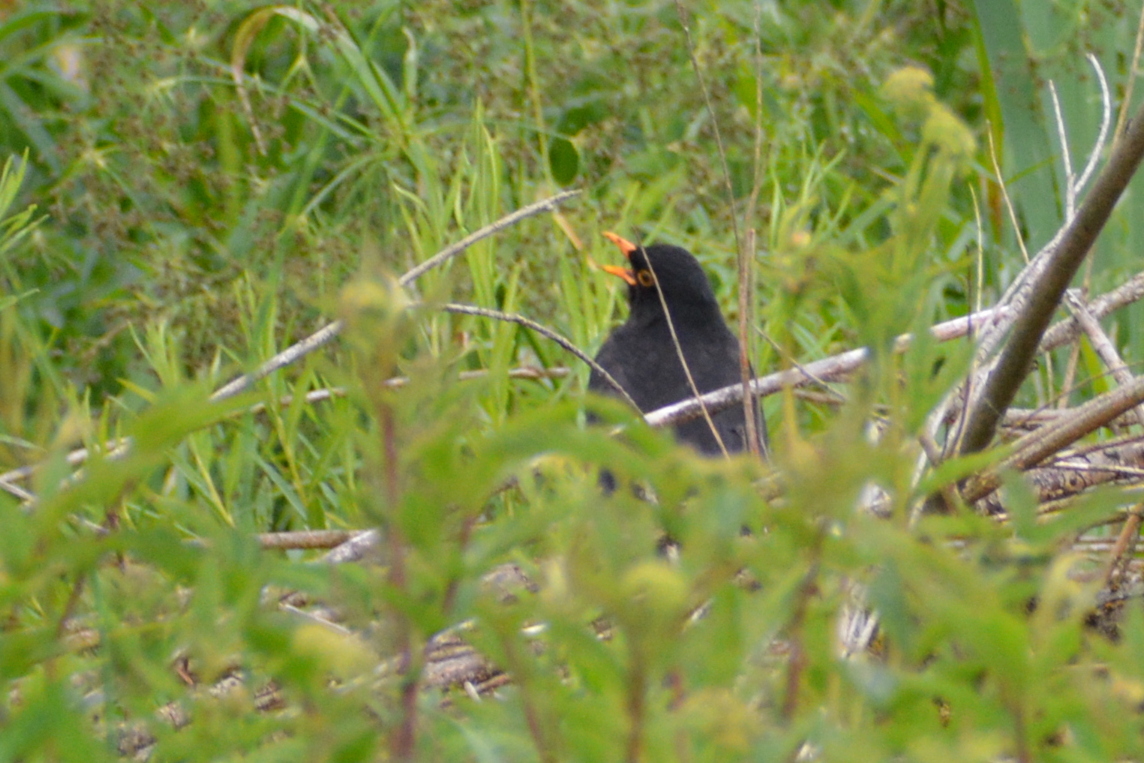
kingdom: Animalia
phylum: Chordata
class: Aves
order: Passeriformes
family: Turdidae
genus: Turdus
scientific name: Turdus merula
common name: Common blackbird
